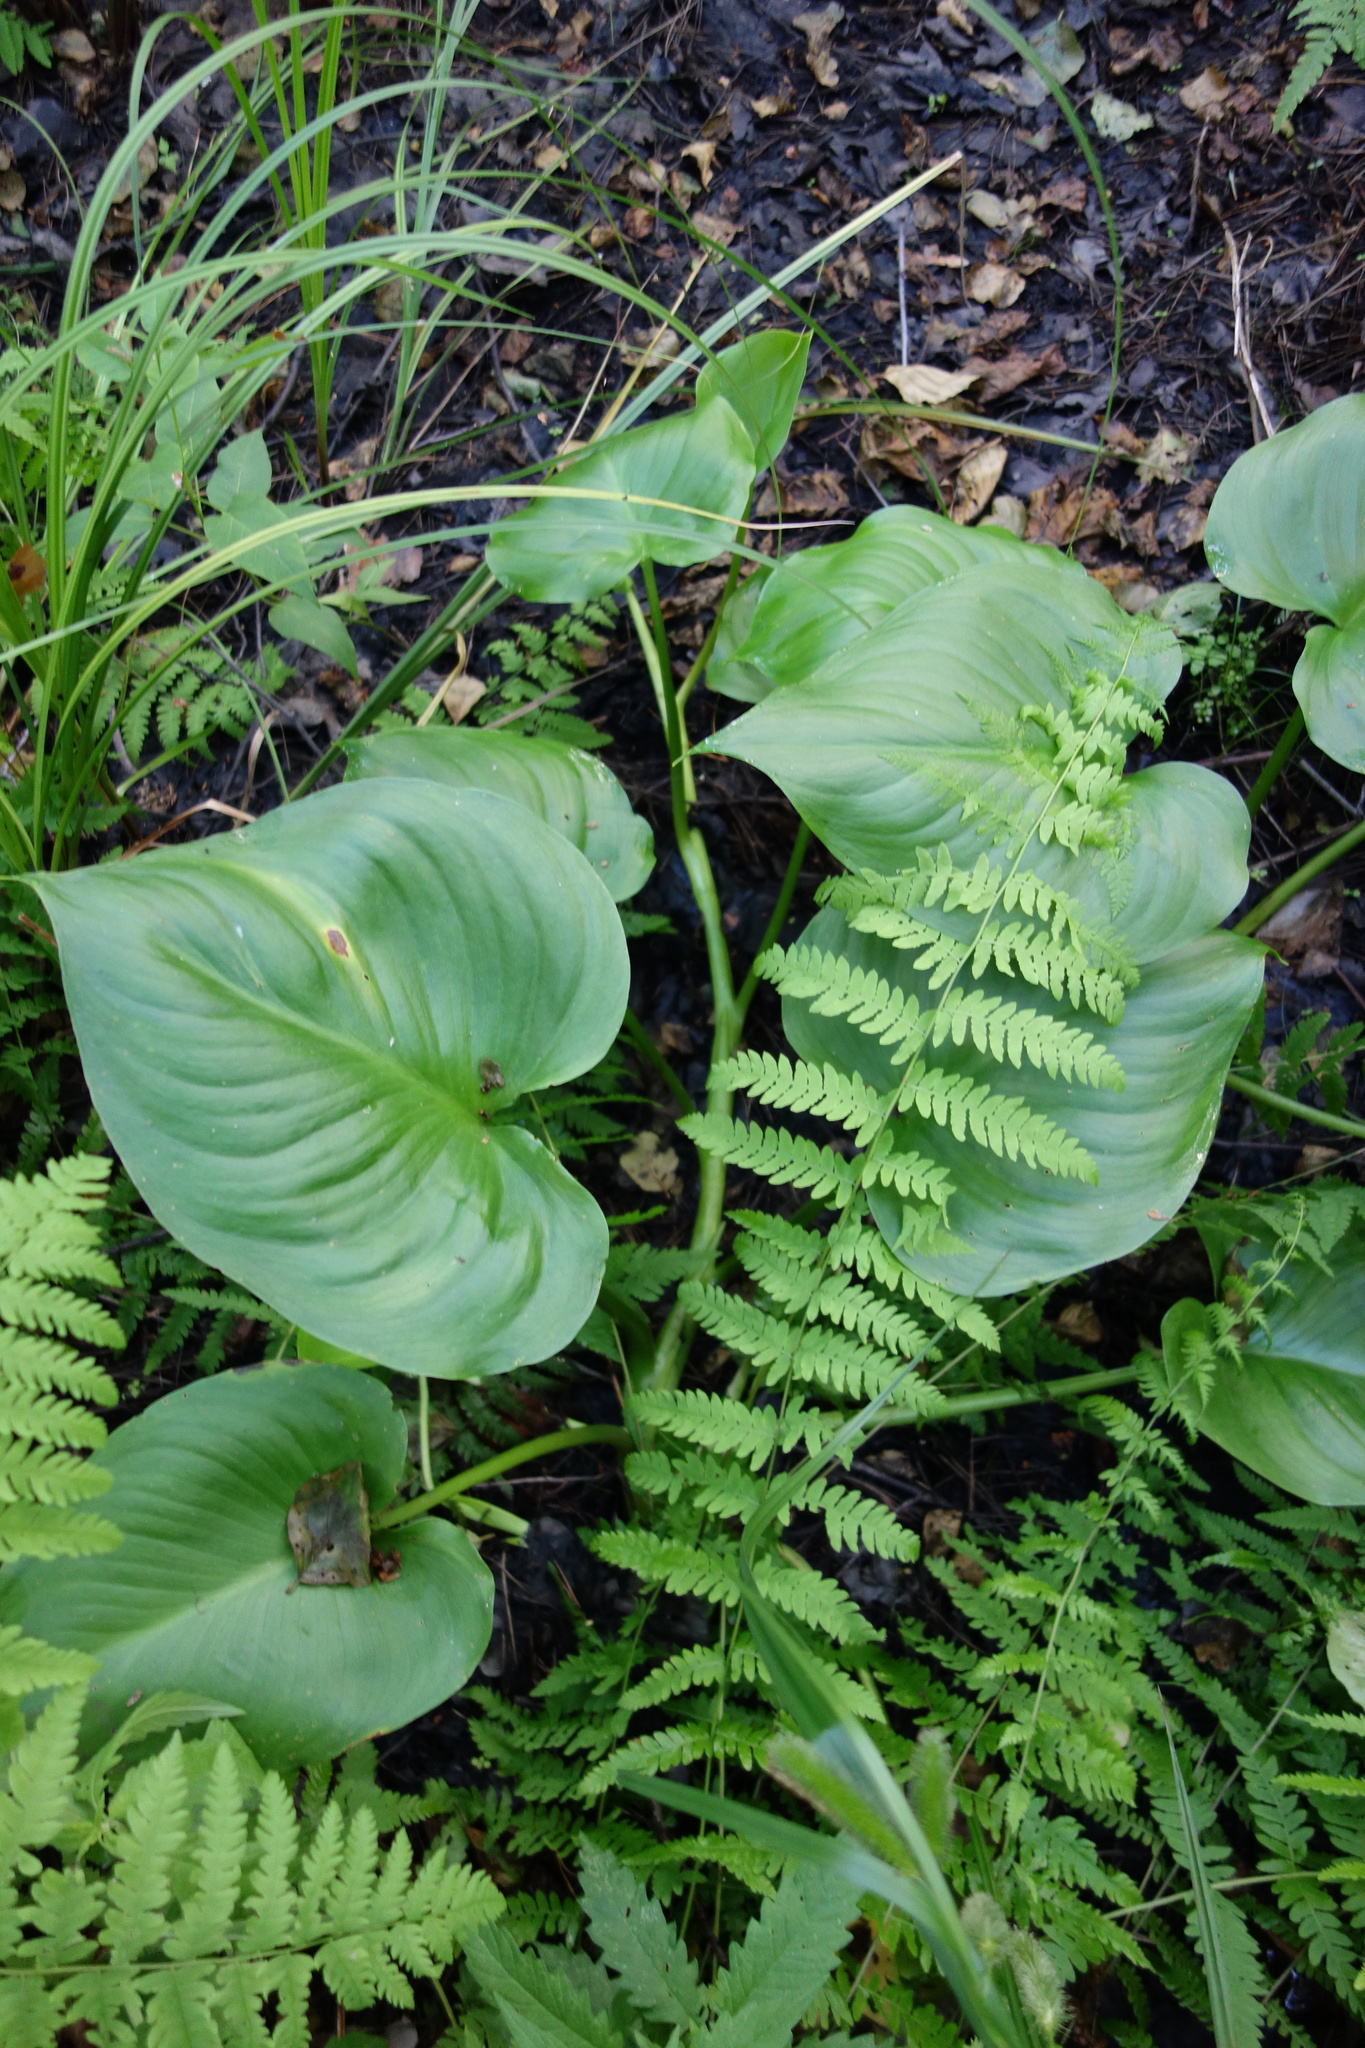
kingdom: Plantae
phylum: Tracheophyta
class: Liliopsida
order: Alismatales
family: Araceae
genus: Calla
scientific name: Calla palustris
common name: Bog arum
